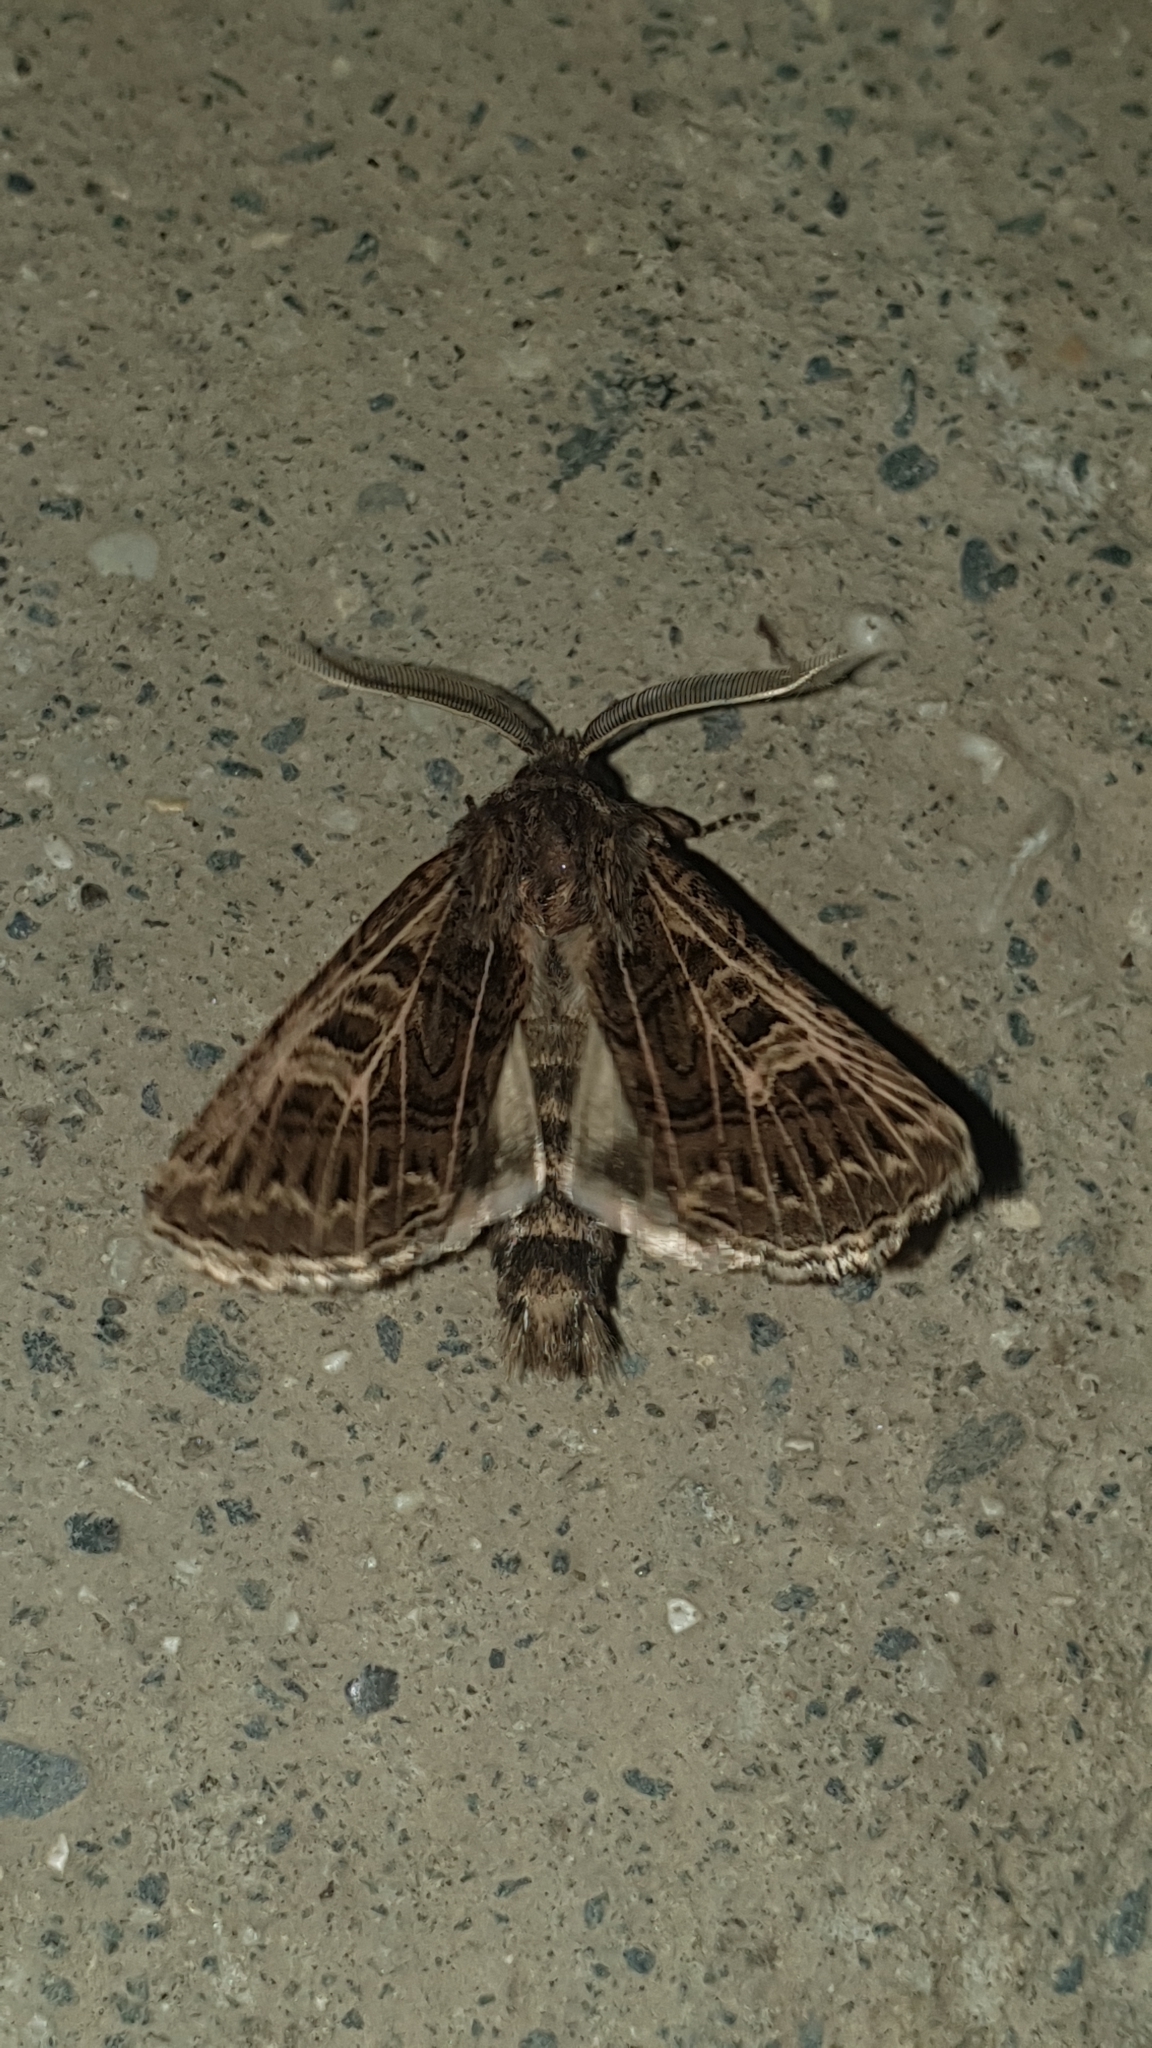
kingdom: Animalia
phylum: Arthropoda
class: Insecta
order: Lepidoptera
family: Noctuidae
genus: Tholera
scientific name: Tholera decimalis
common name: Feathered gothic
